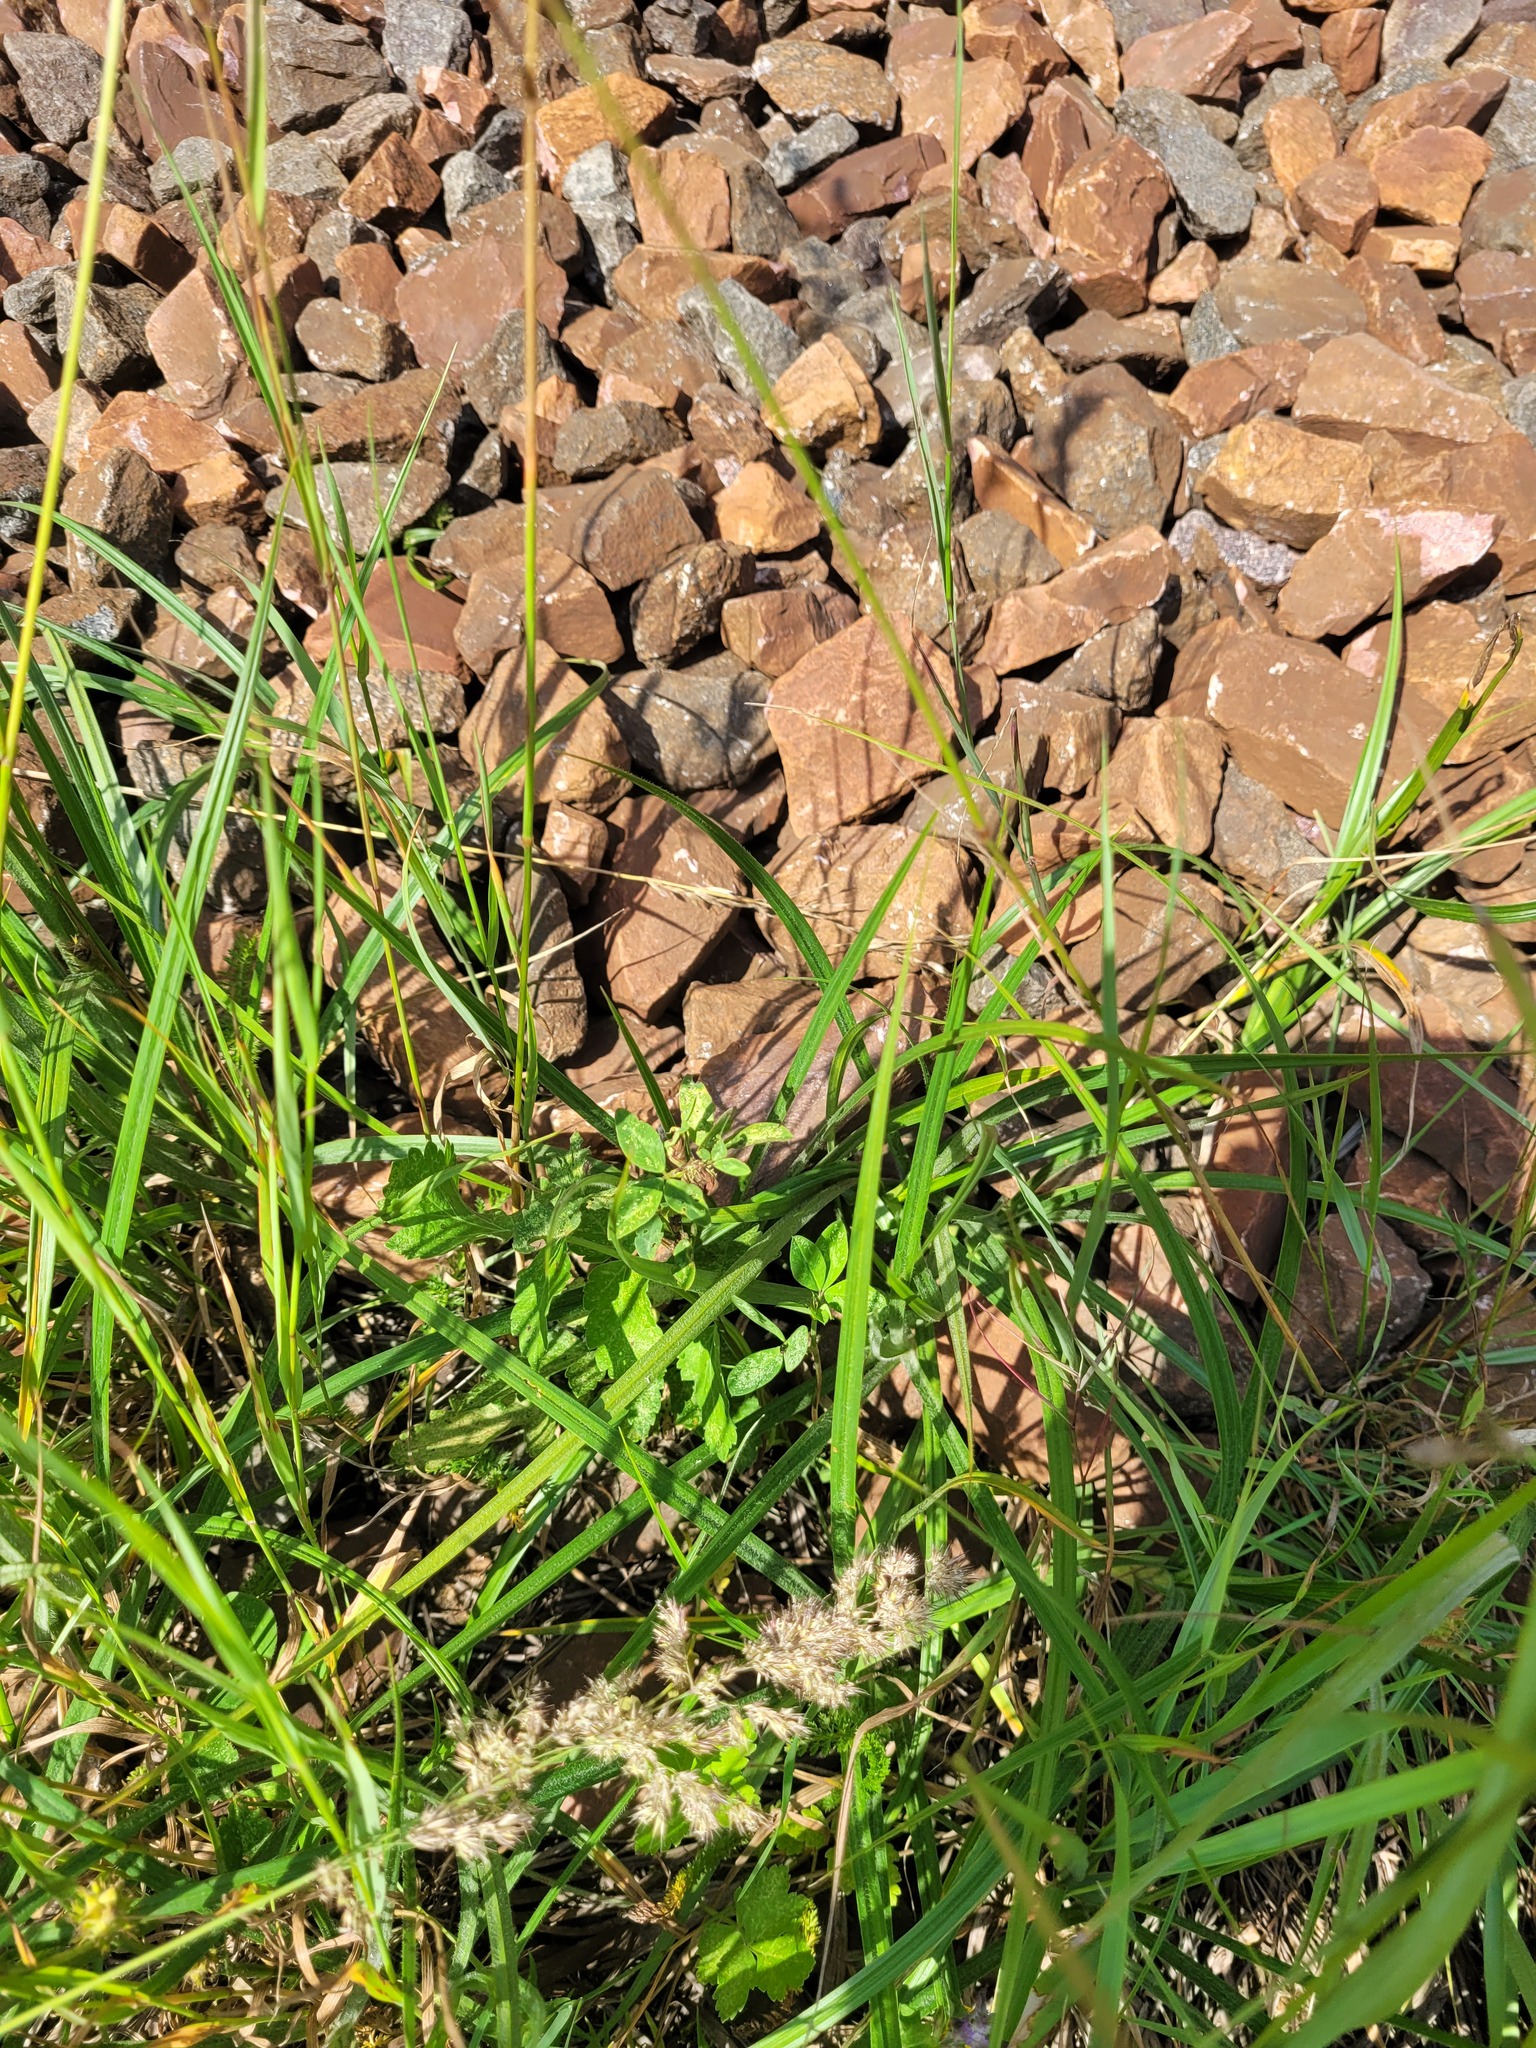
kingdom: Plantae
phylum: Tracheophyta
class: Liliopsida
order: Poales
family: Cyperaceae
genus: Carex
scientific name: Carex hirta
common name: Hairy sedge
